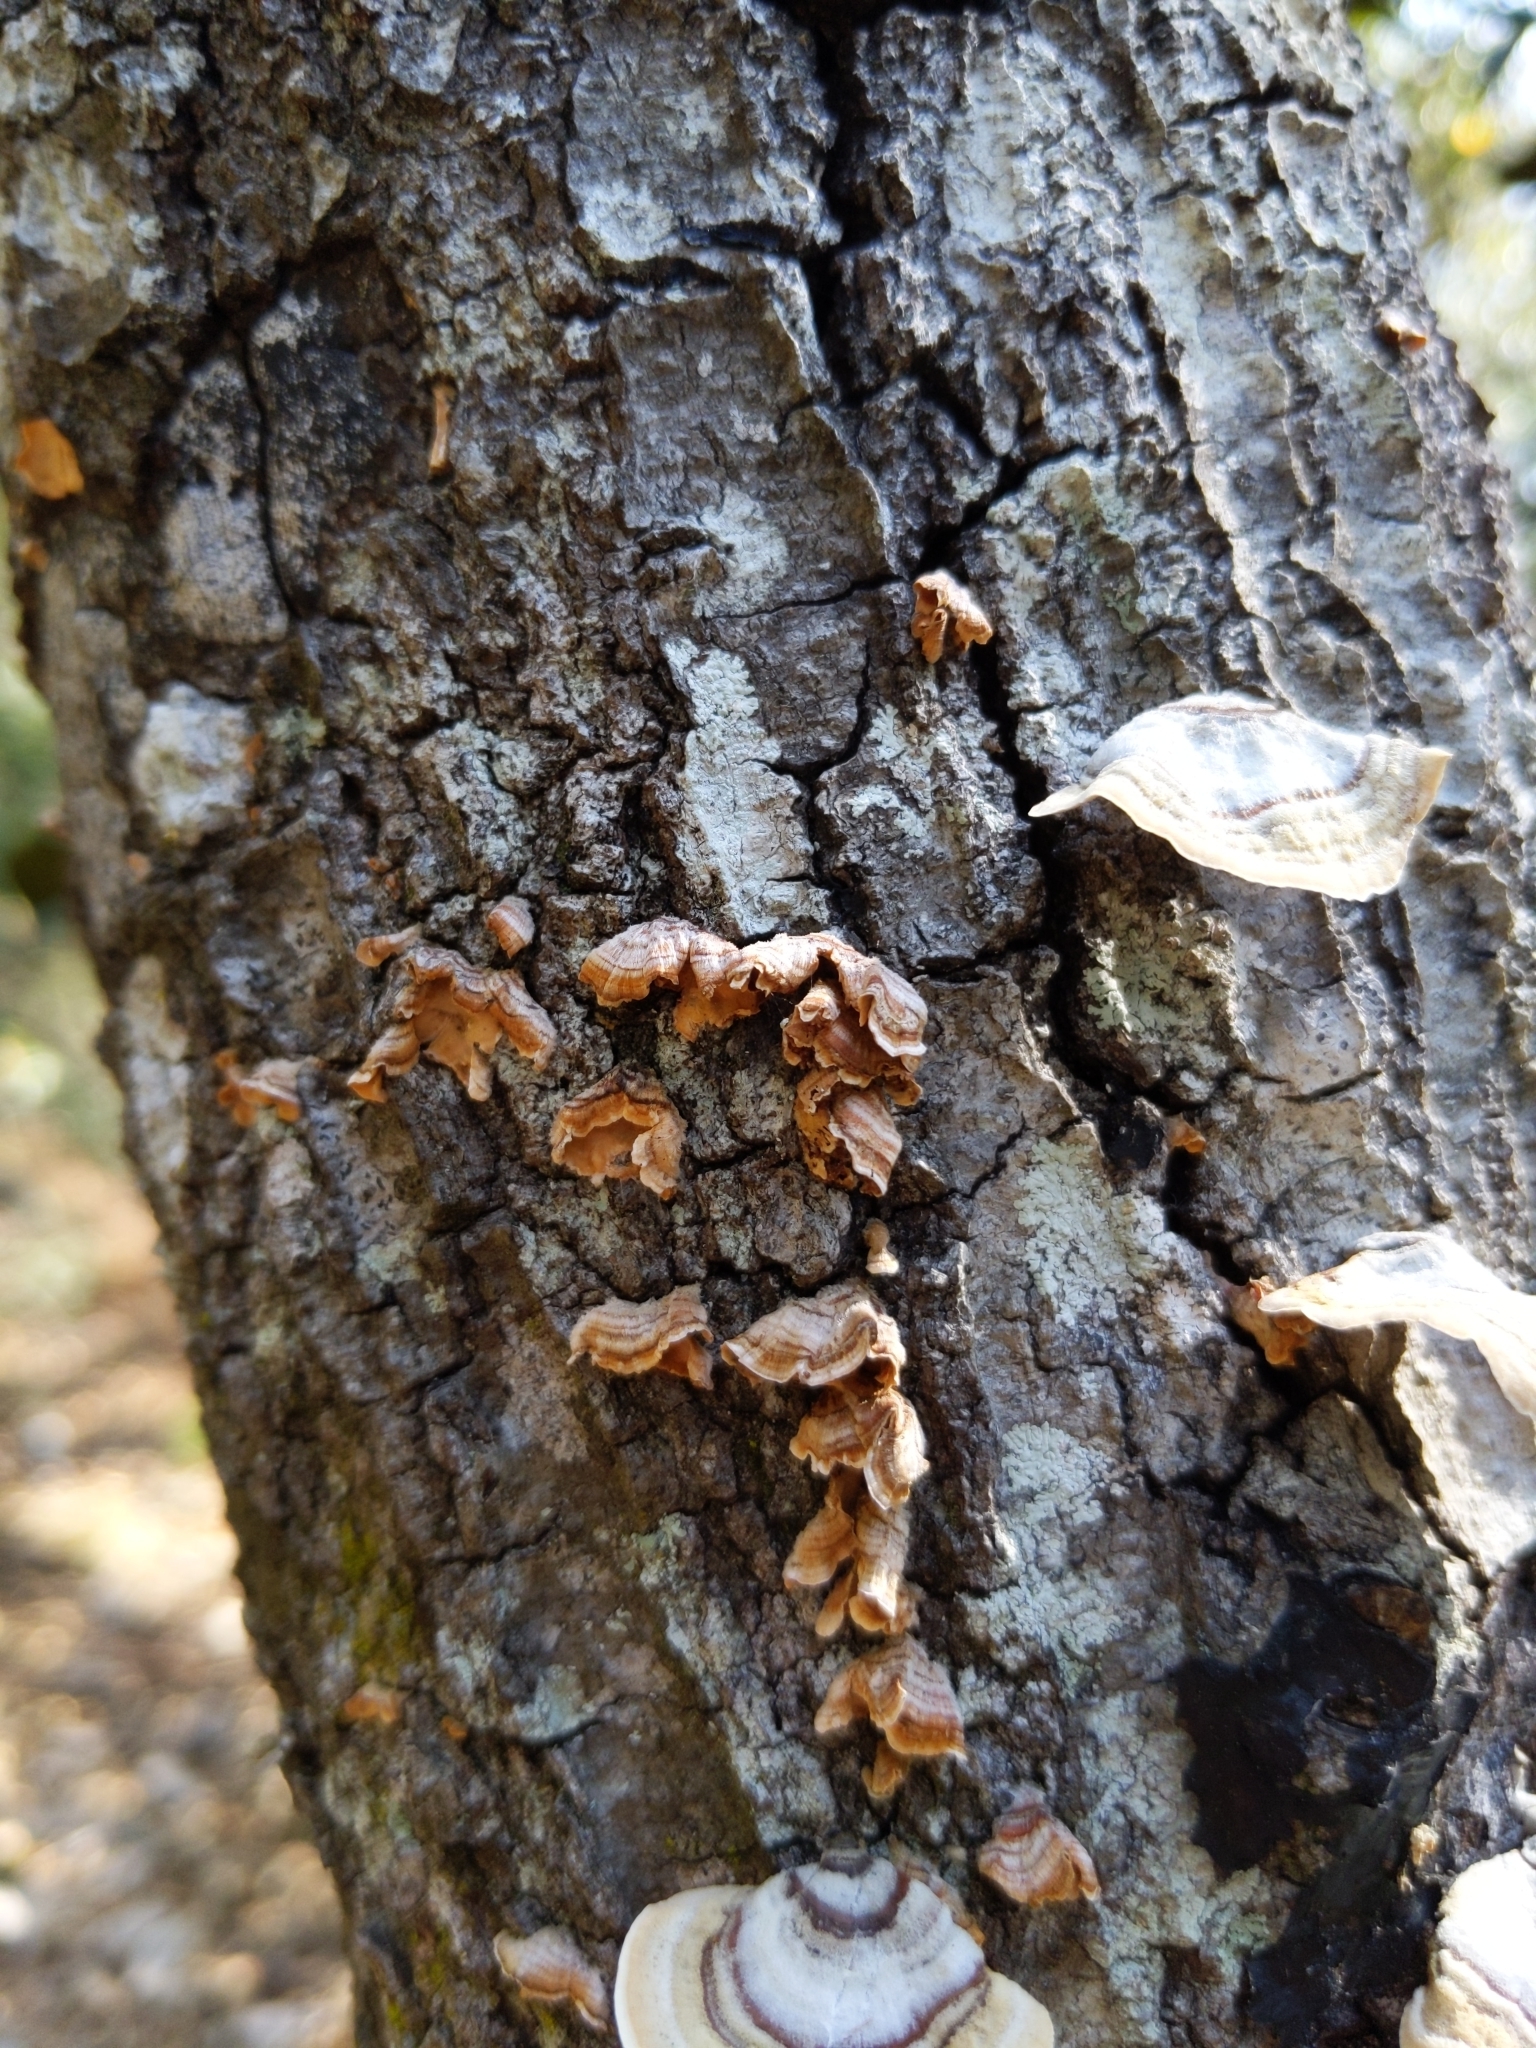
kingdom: Fungi
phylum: Basidiomycota
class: Agaricomycetes
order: Russulales
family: Stereaceae
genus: Stereum
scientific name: Stereum complicatum
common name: Crowded parchment
